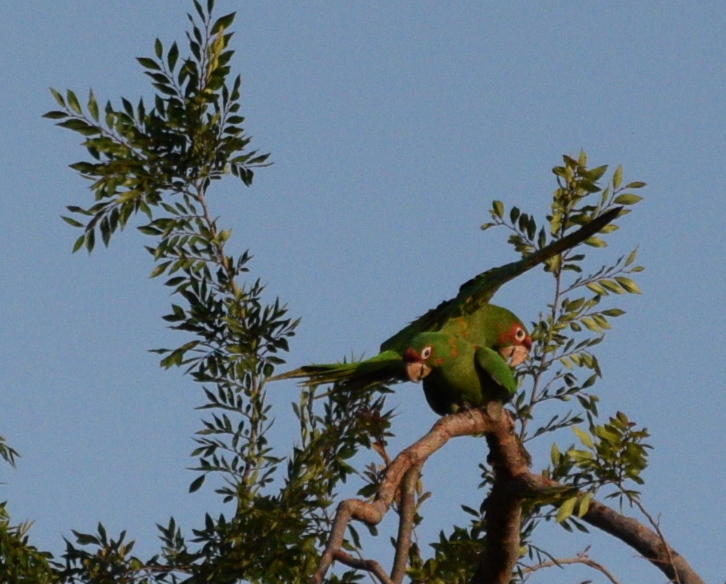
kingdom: Animalia
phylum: Chordata
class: Aves
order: Psittaciformes
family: Psittacidae
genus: Aratinga
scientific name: Aratinga mitrata
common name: Mitred parakeet
